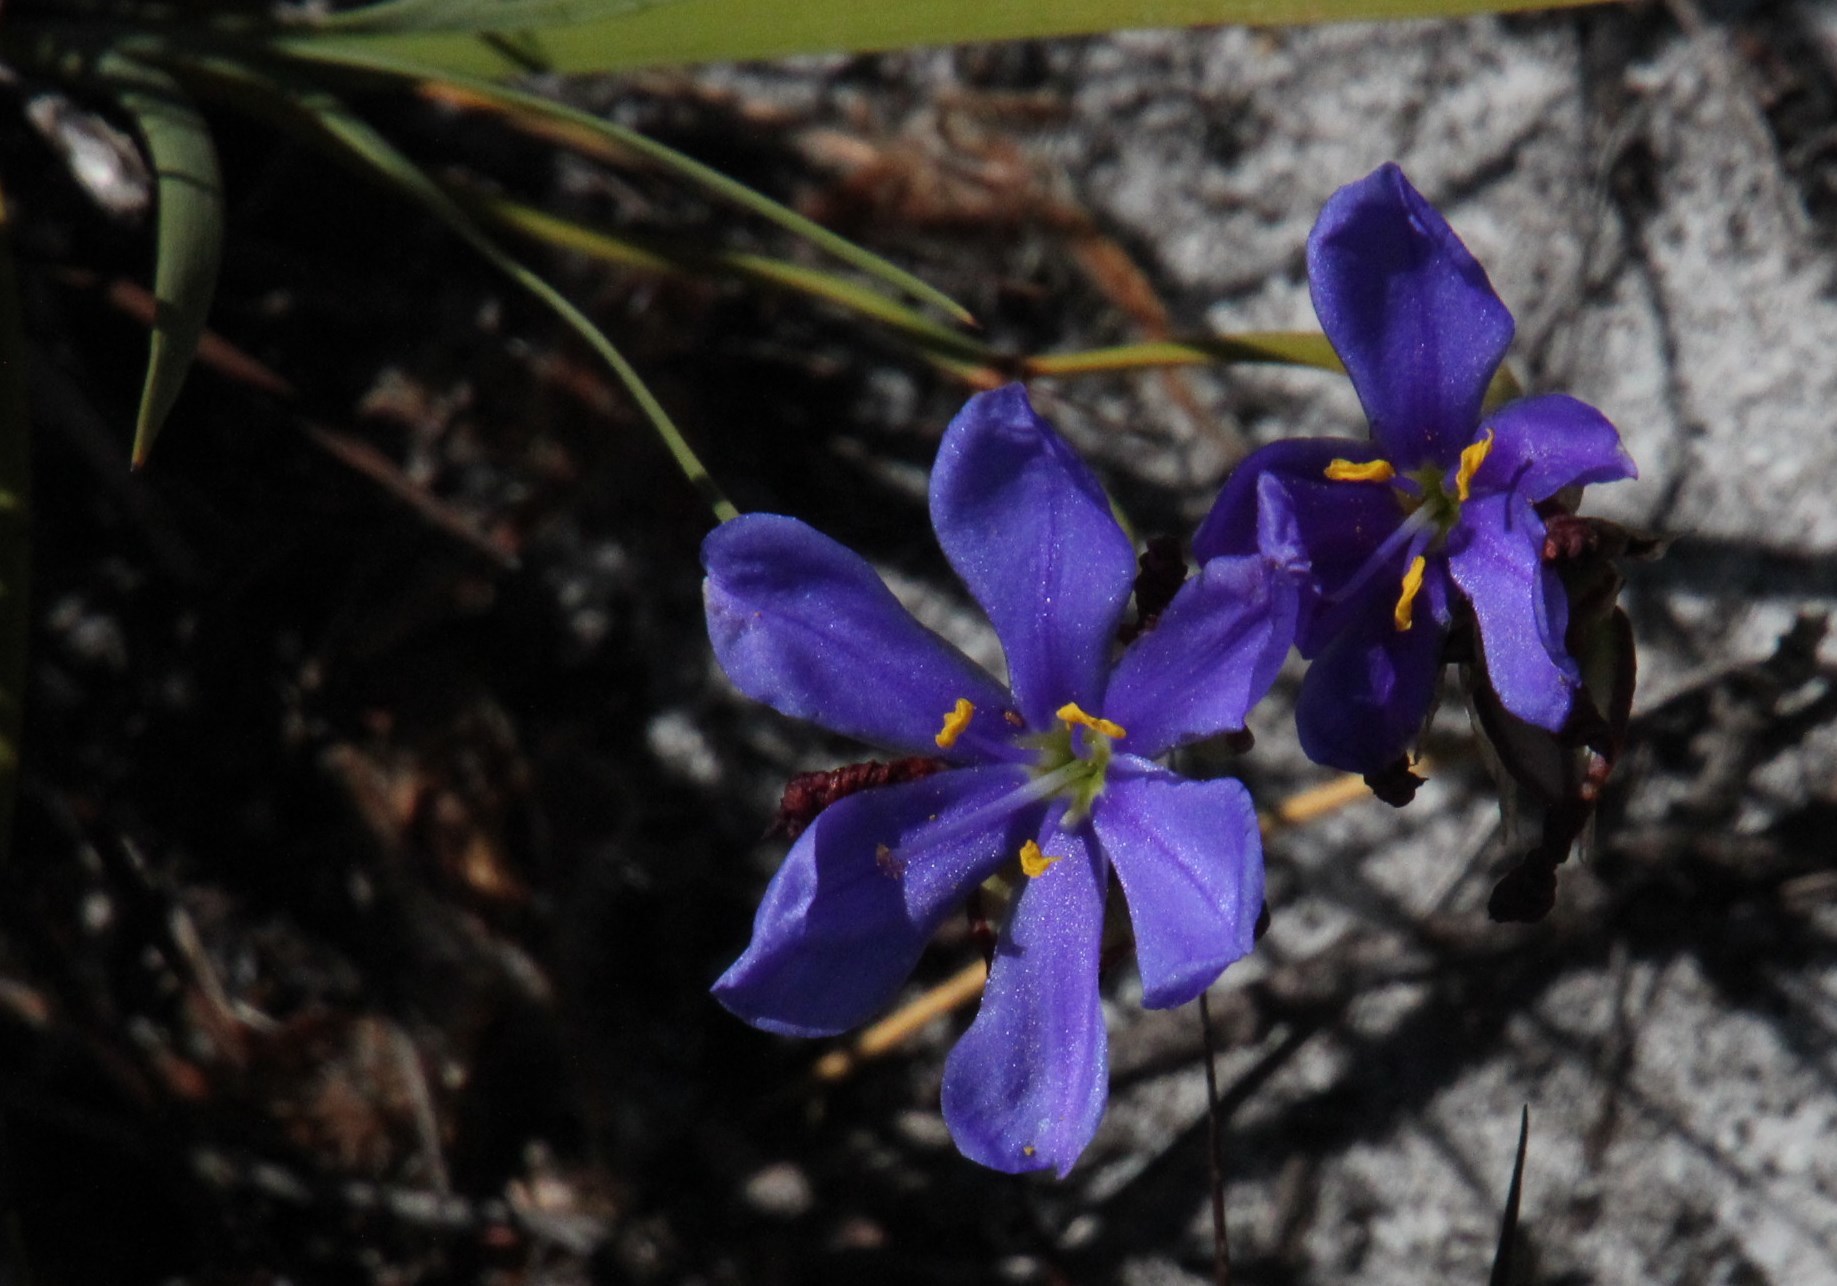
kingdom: Plantae
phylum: Tracheophyta
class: Liliopsida
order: Asparagales
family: Iridaceae
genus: Aristea
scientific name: Aristea africana
